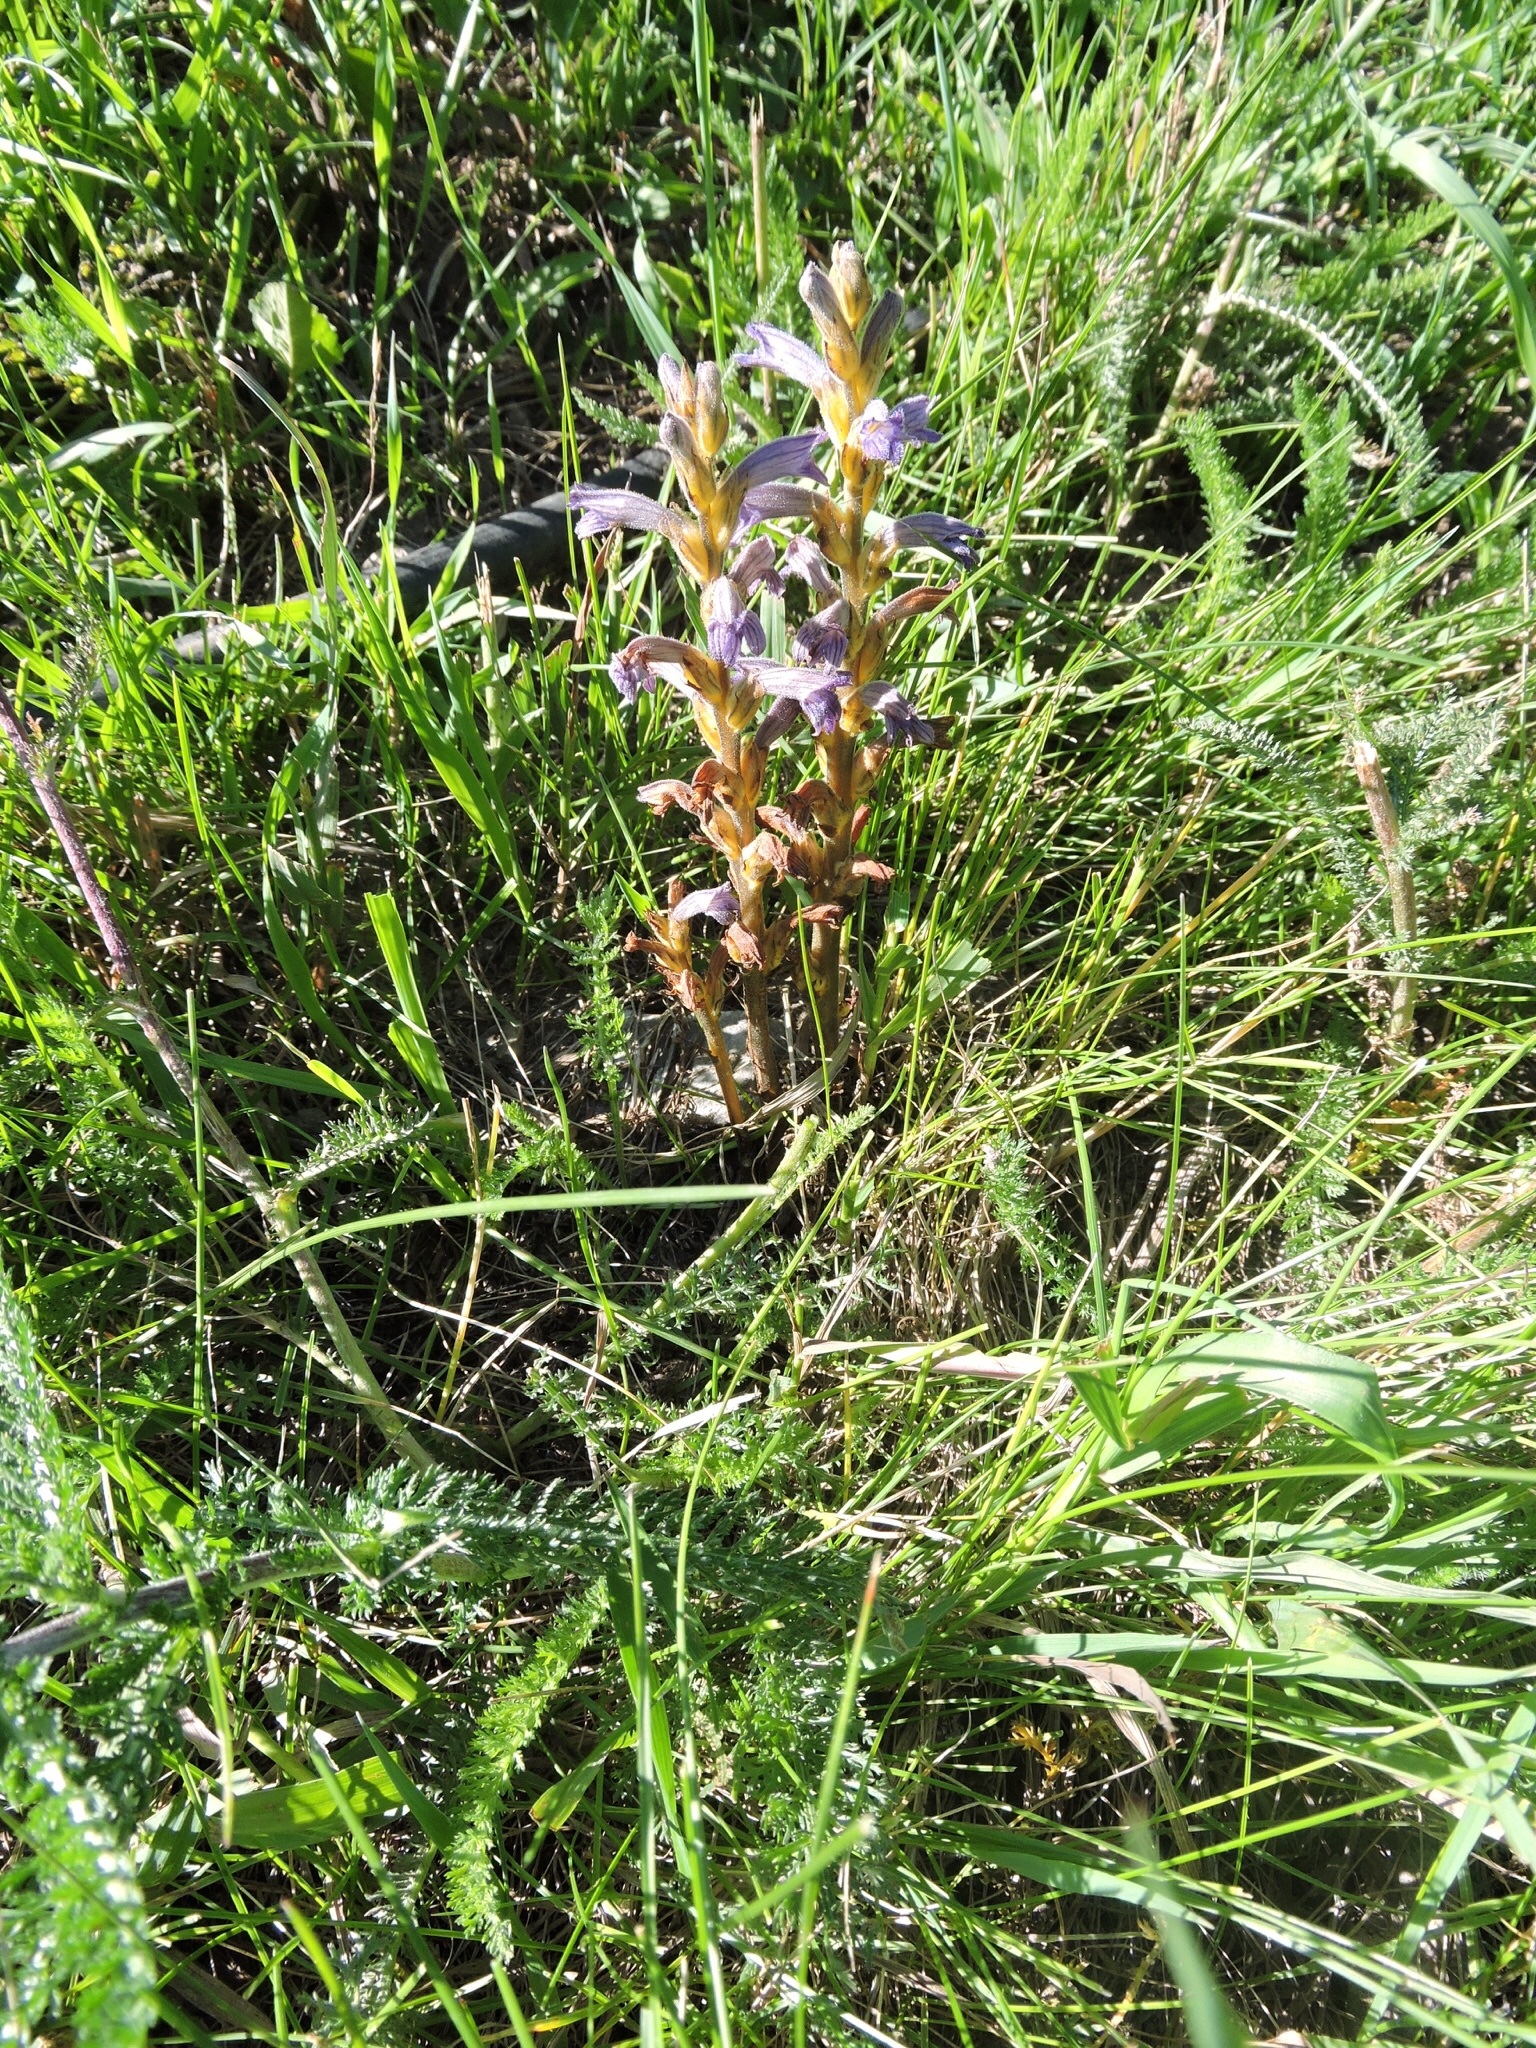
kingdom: Plantae
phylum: Tracheophyta
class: Magnoliopsida
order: Lamiales
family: Orobanchaceae
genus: Phelipanche
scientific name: Phelipanche purpurea
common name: Purple broomrape
